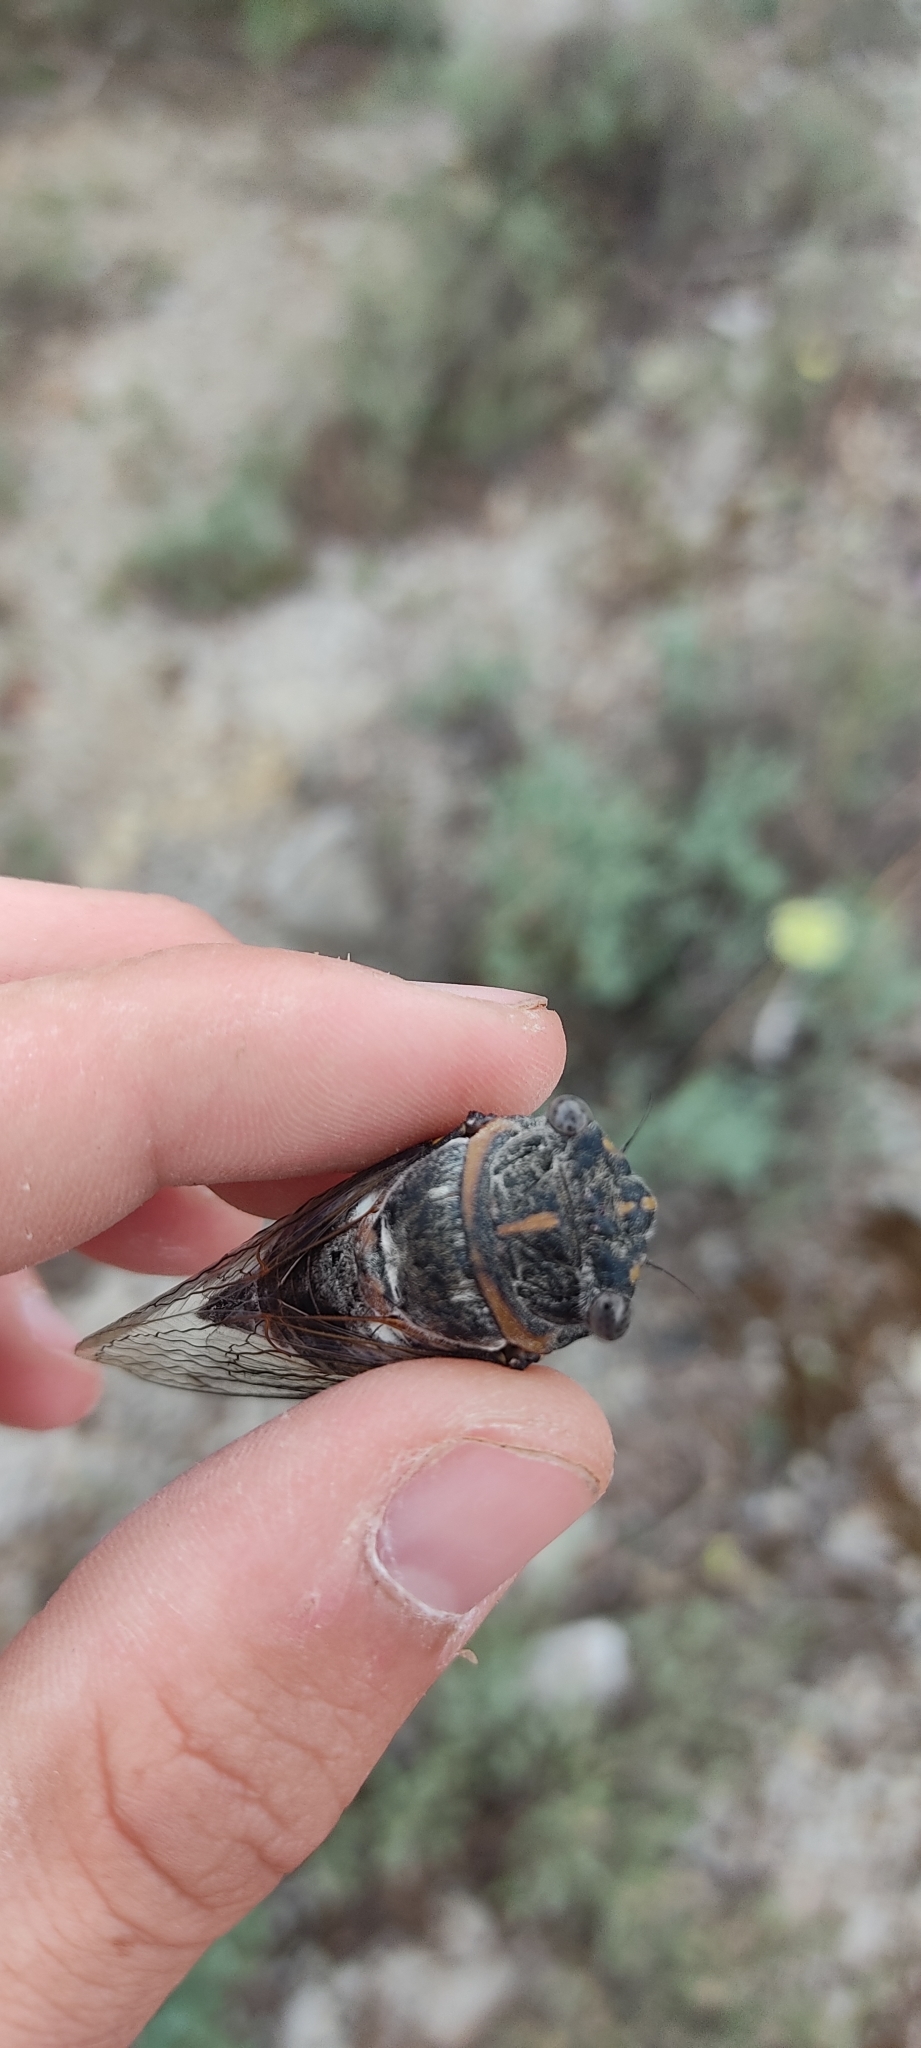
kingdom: Animalia
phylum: Arthropoda
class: Insecta
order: Hemiptera
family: Cicadidae
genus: Lyristes
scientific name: Lyristes plebejus
